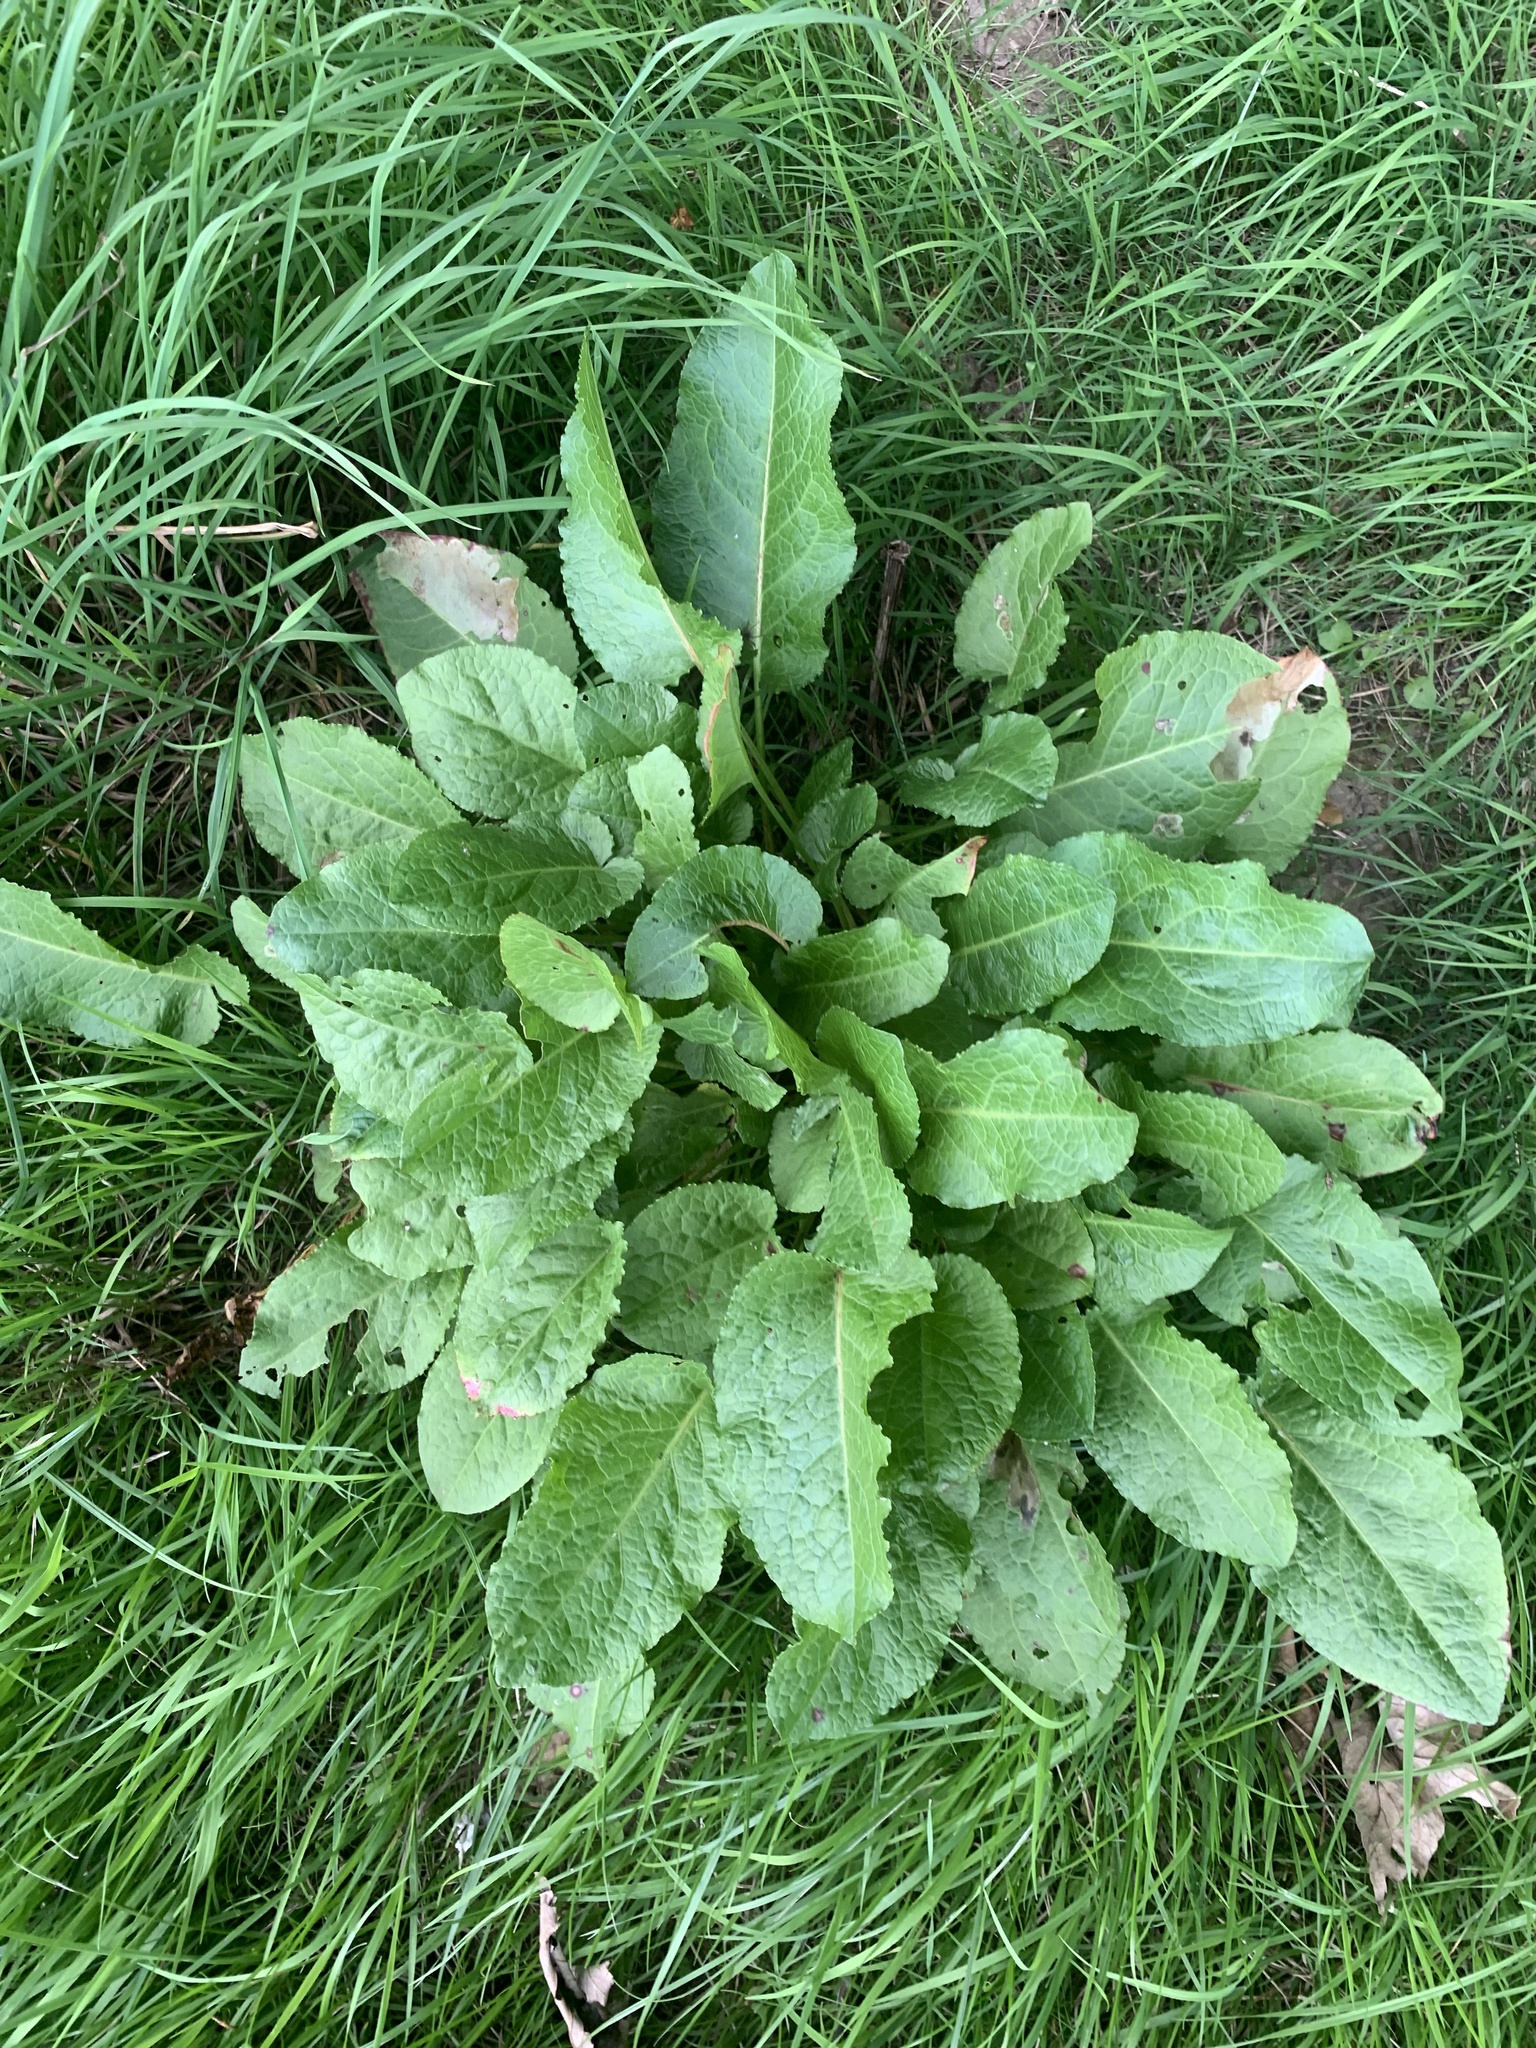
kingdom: Plantae
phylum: Tracheophyta
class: Magnoliopsida
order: Caryophyllales
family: Polygonaceae
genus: Rumex
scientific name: Rumex obtusifolius
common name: Bitter dock
